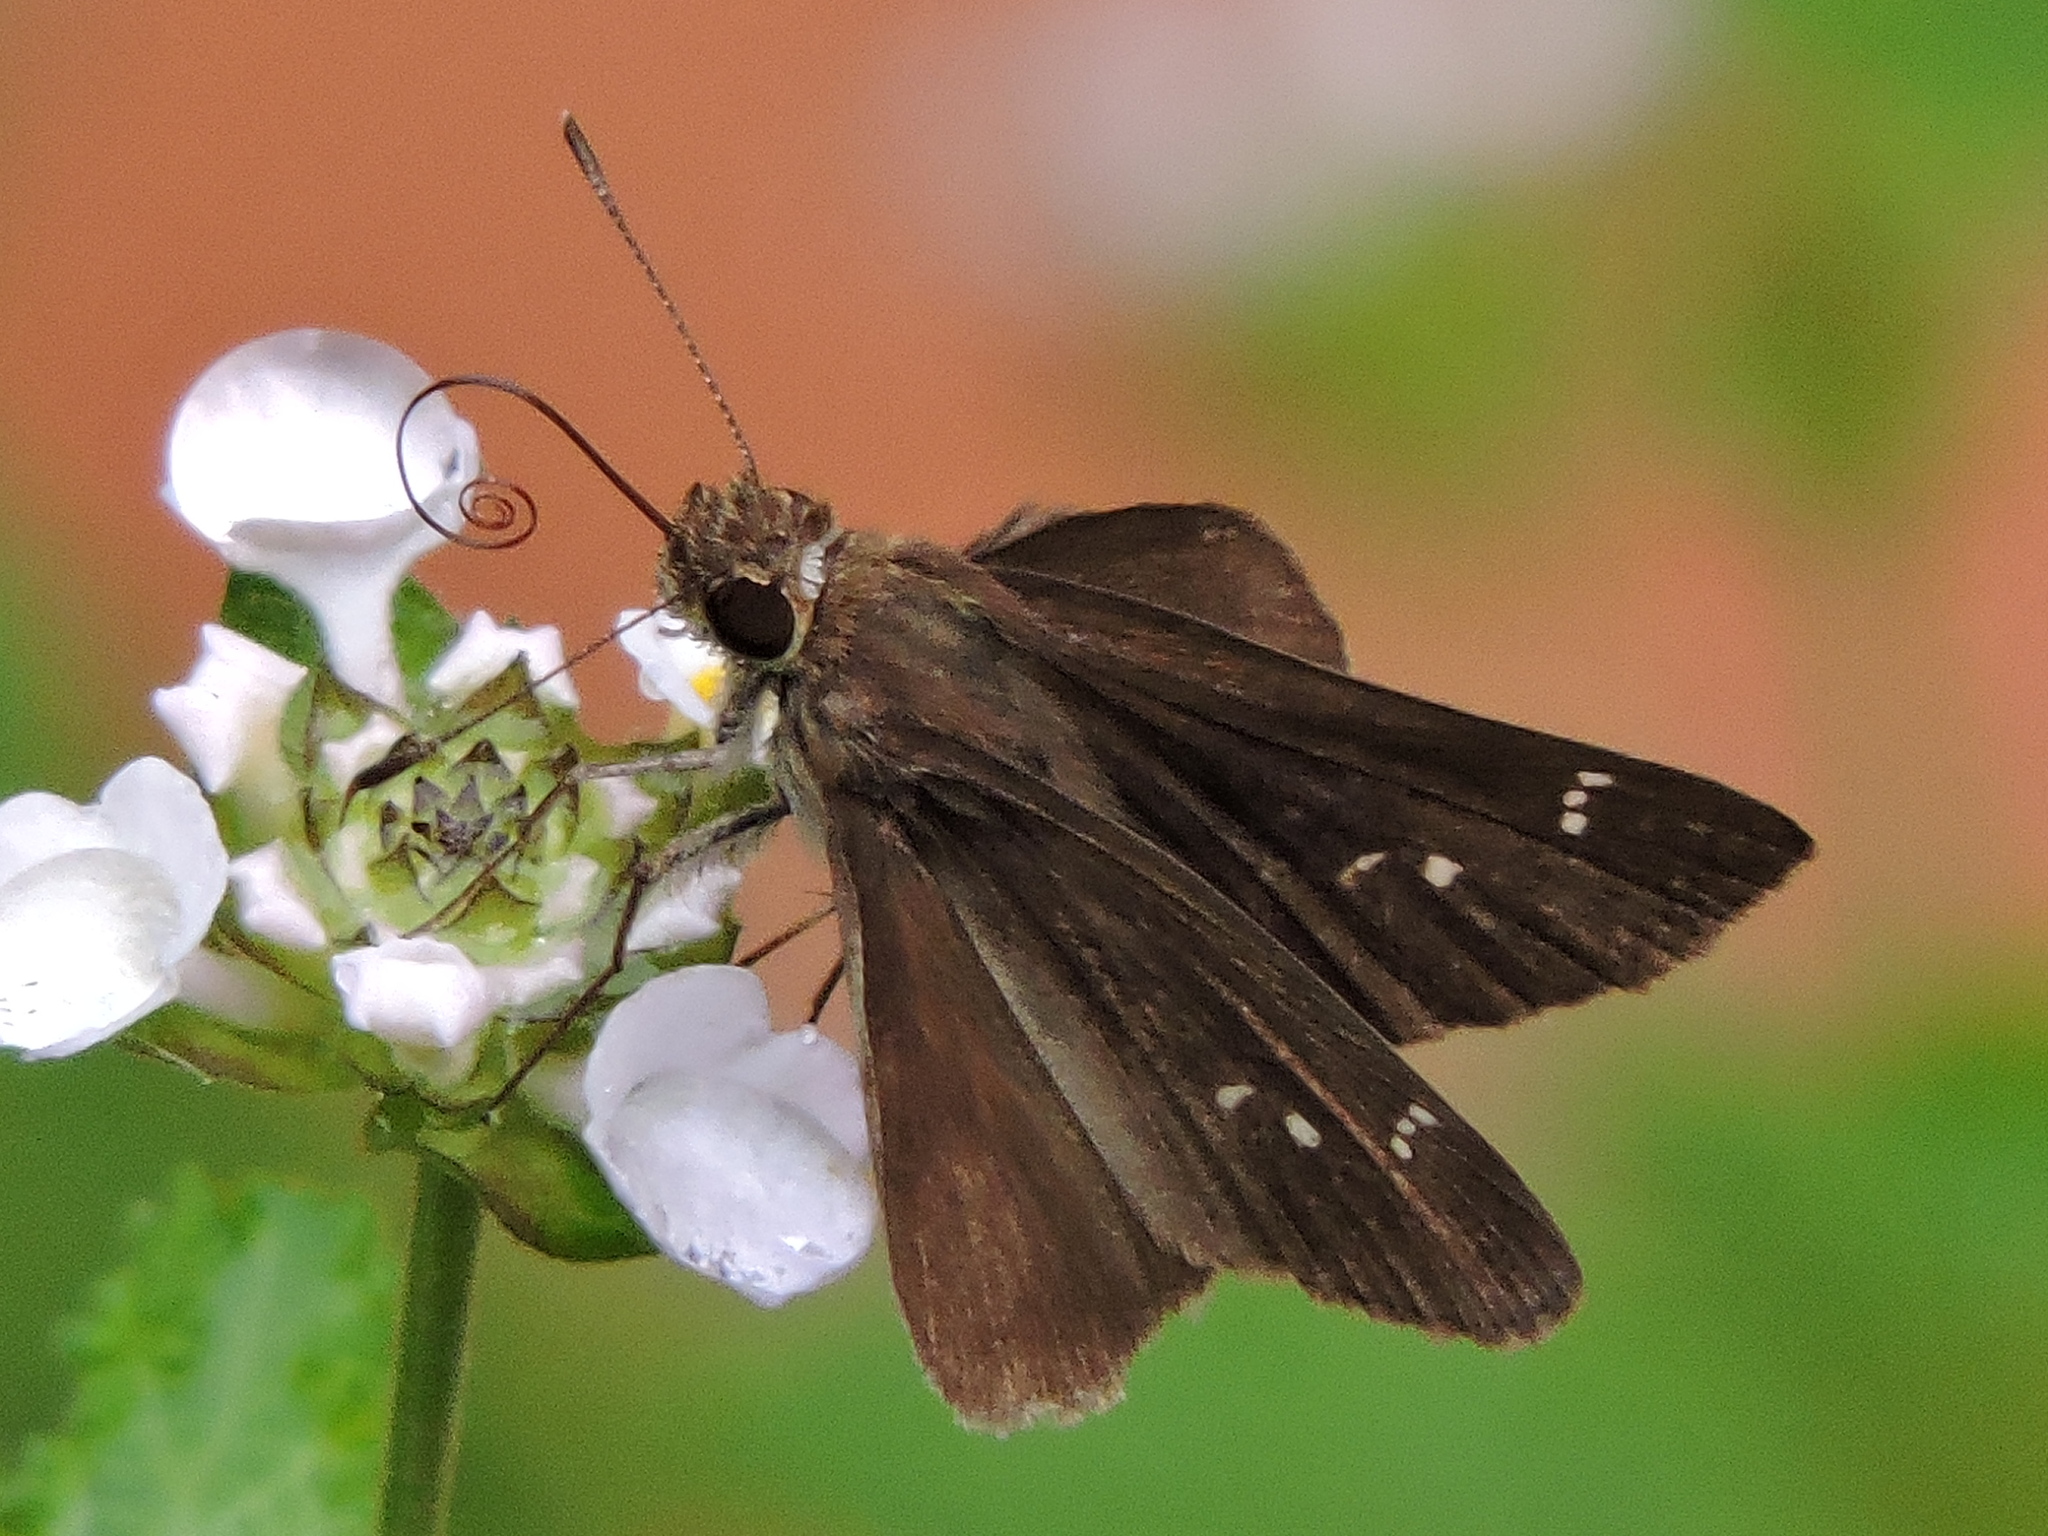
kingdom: Animalia
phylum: Arthropoda
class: Insecta
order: Lepidoptera
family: Hesperiidae
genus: Lerema
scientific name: Lerema accius
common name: Clouded skipper
